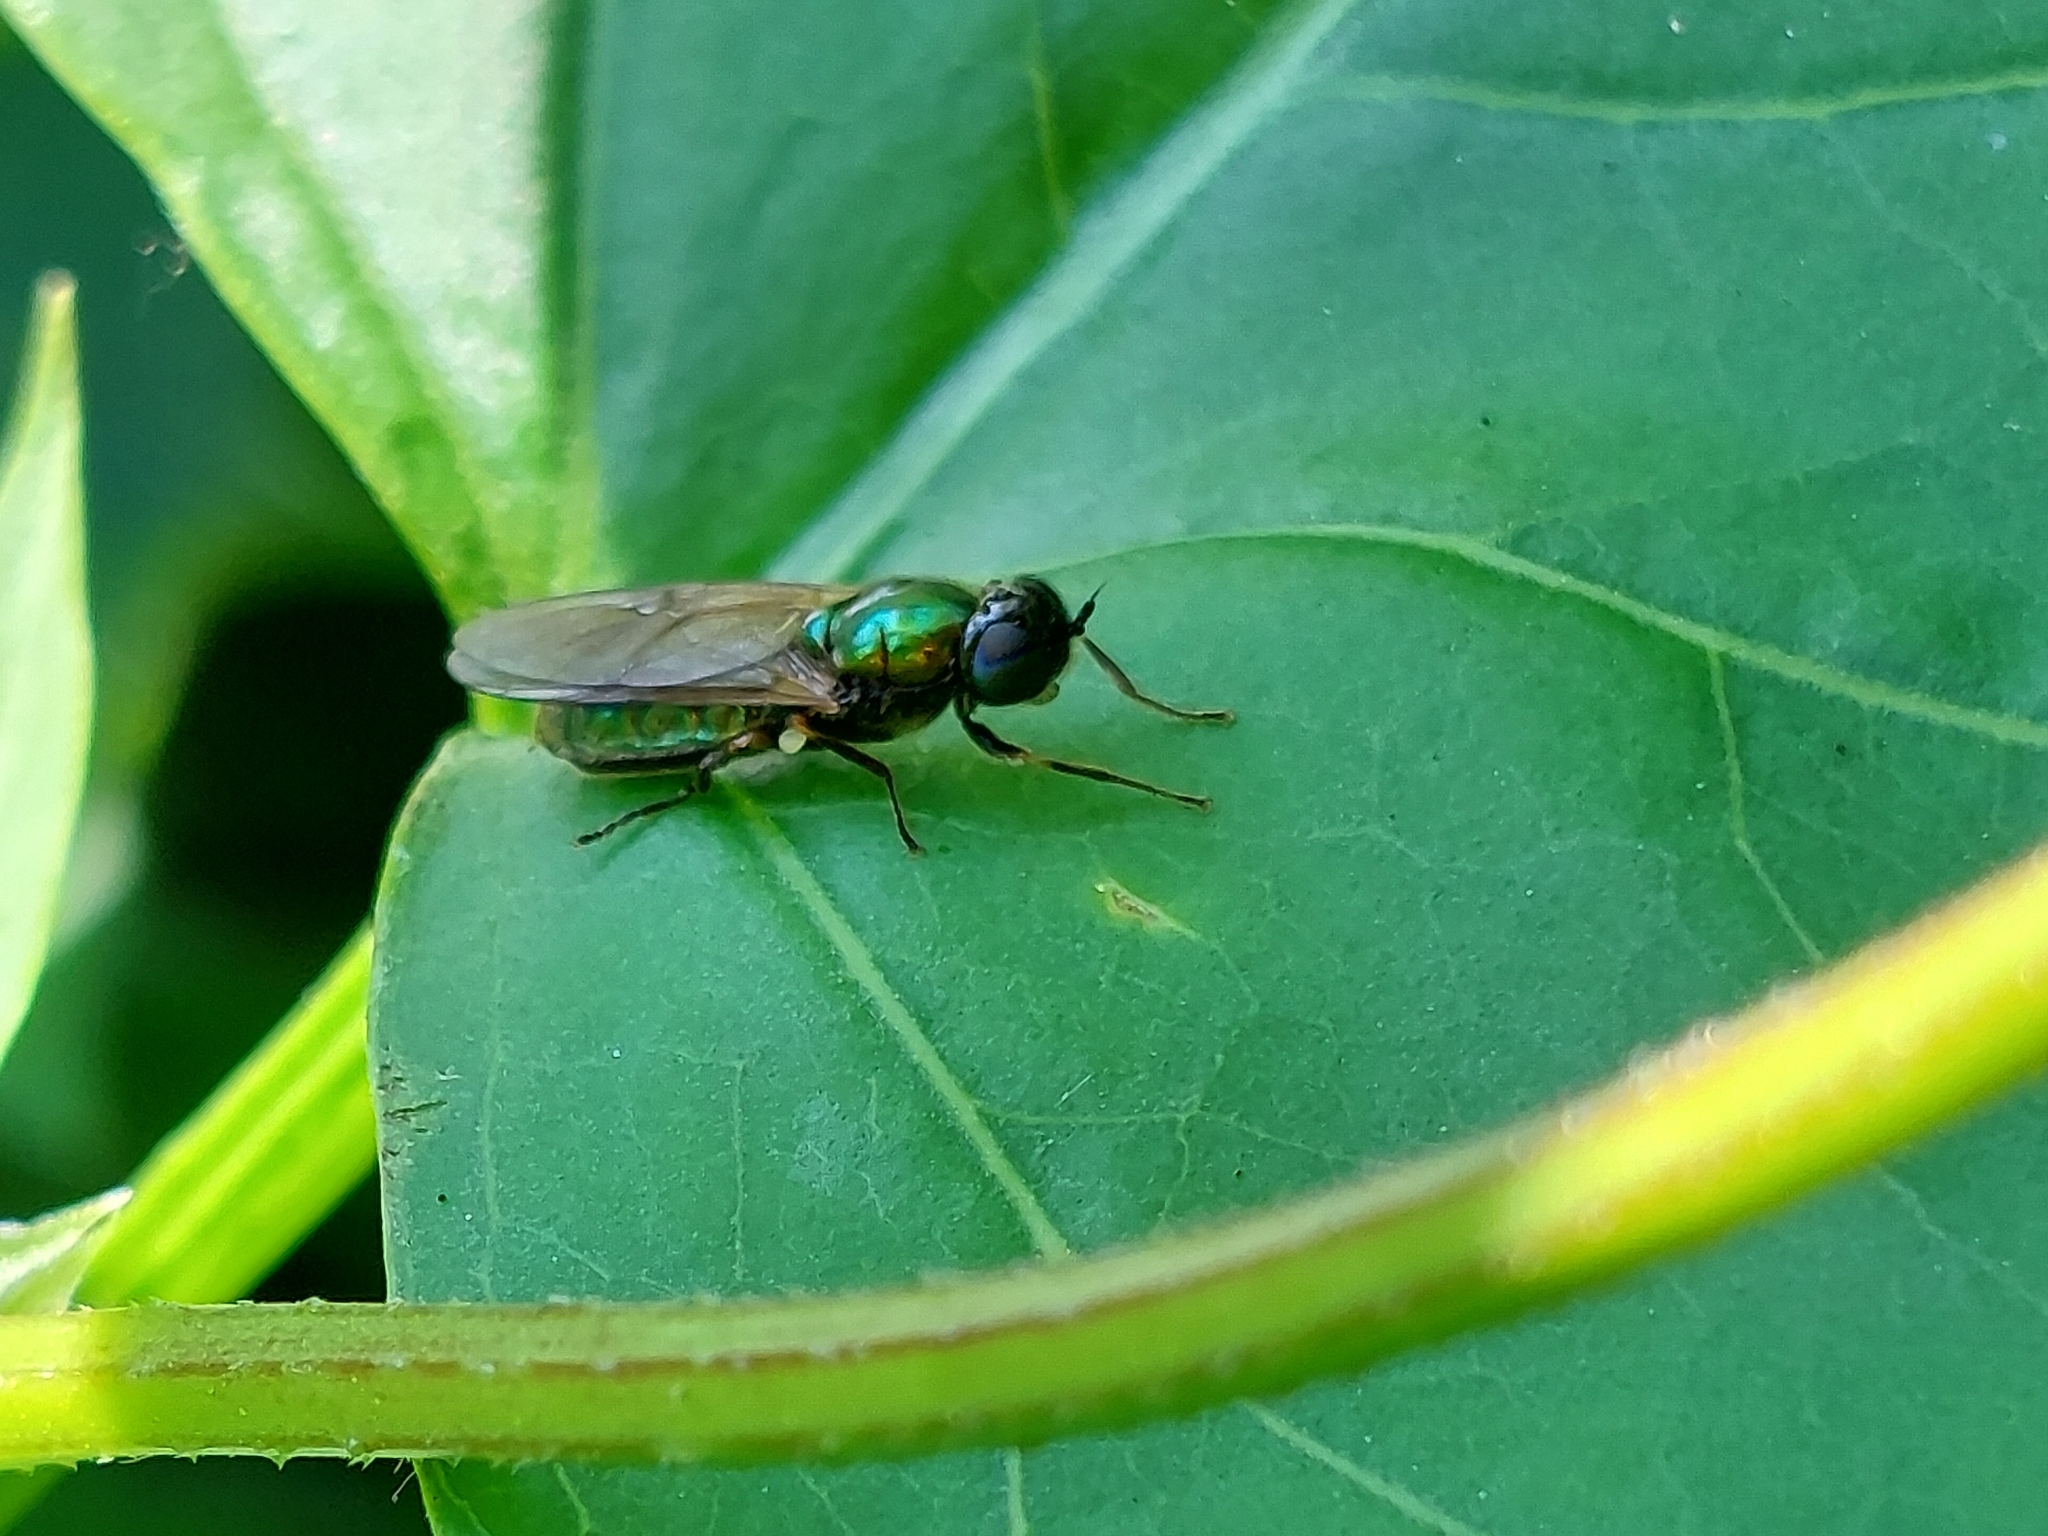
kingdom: Animalia
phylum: Arthropoda
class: Insecta
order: Diptera
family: Stratiomyidae
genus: Chloromyia
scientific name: Chloromyia formosa
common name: Soldier fly
